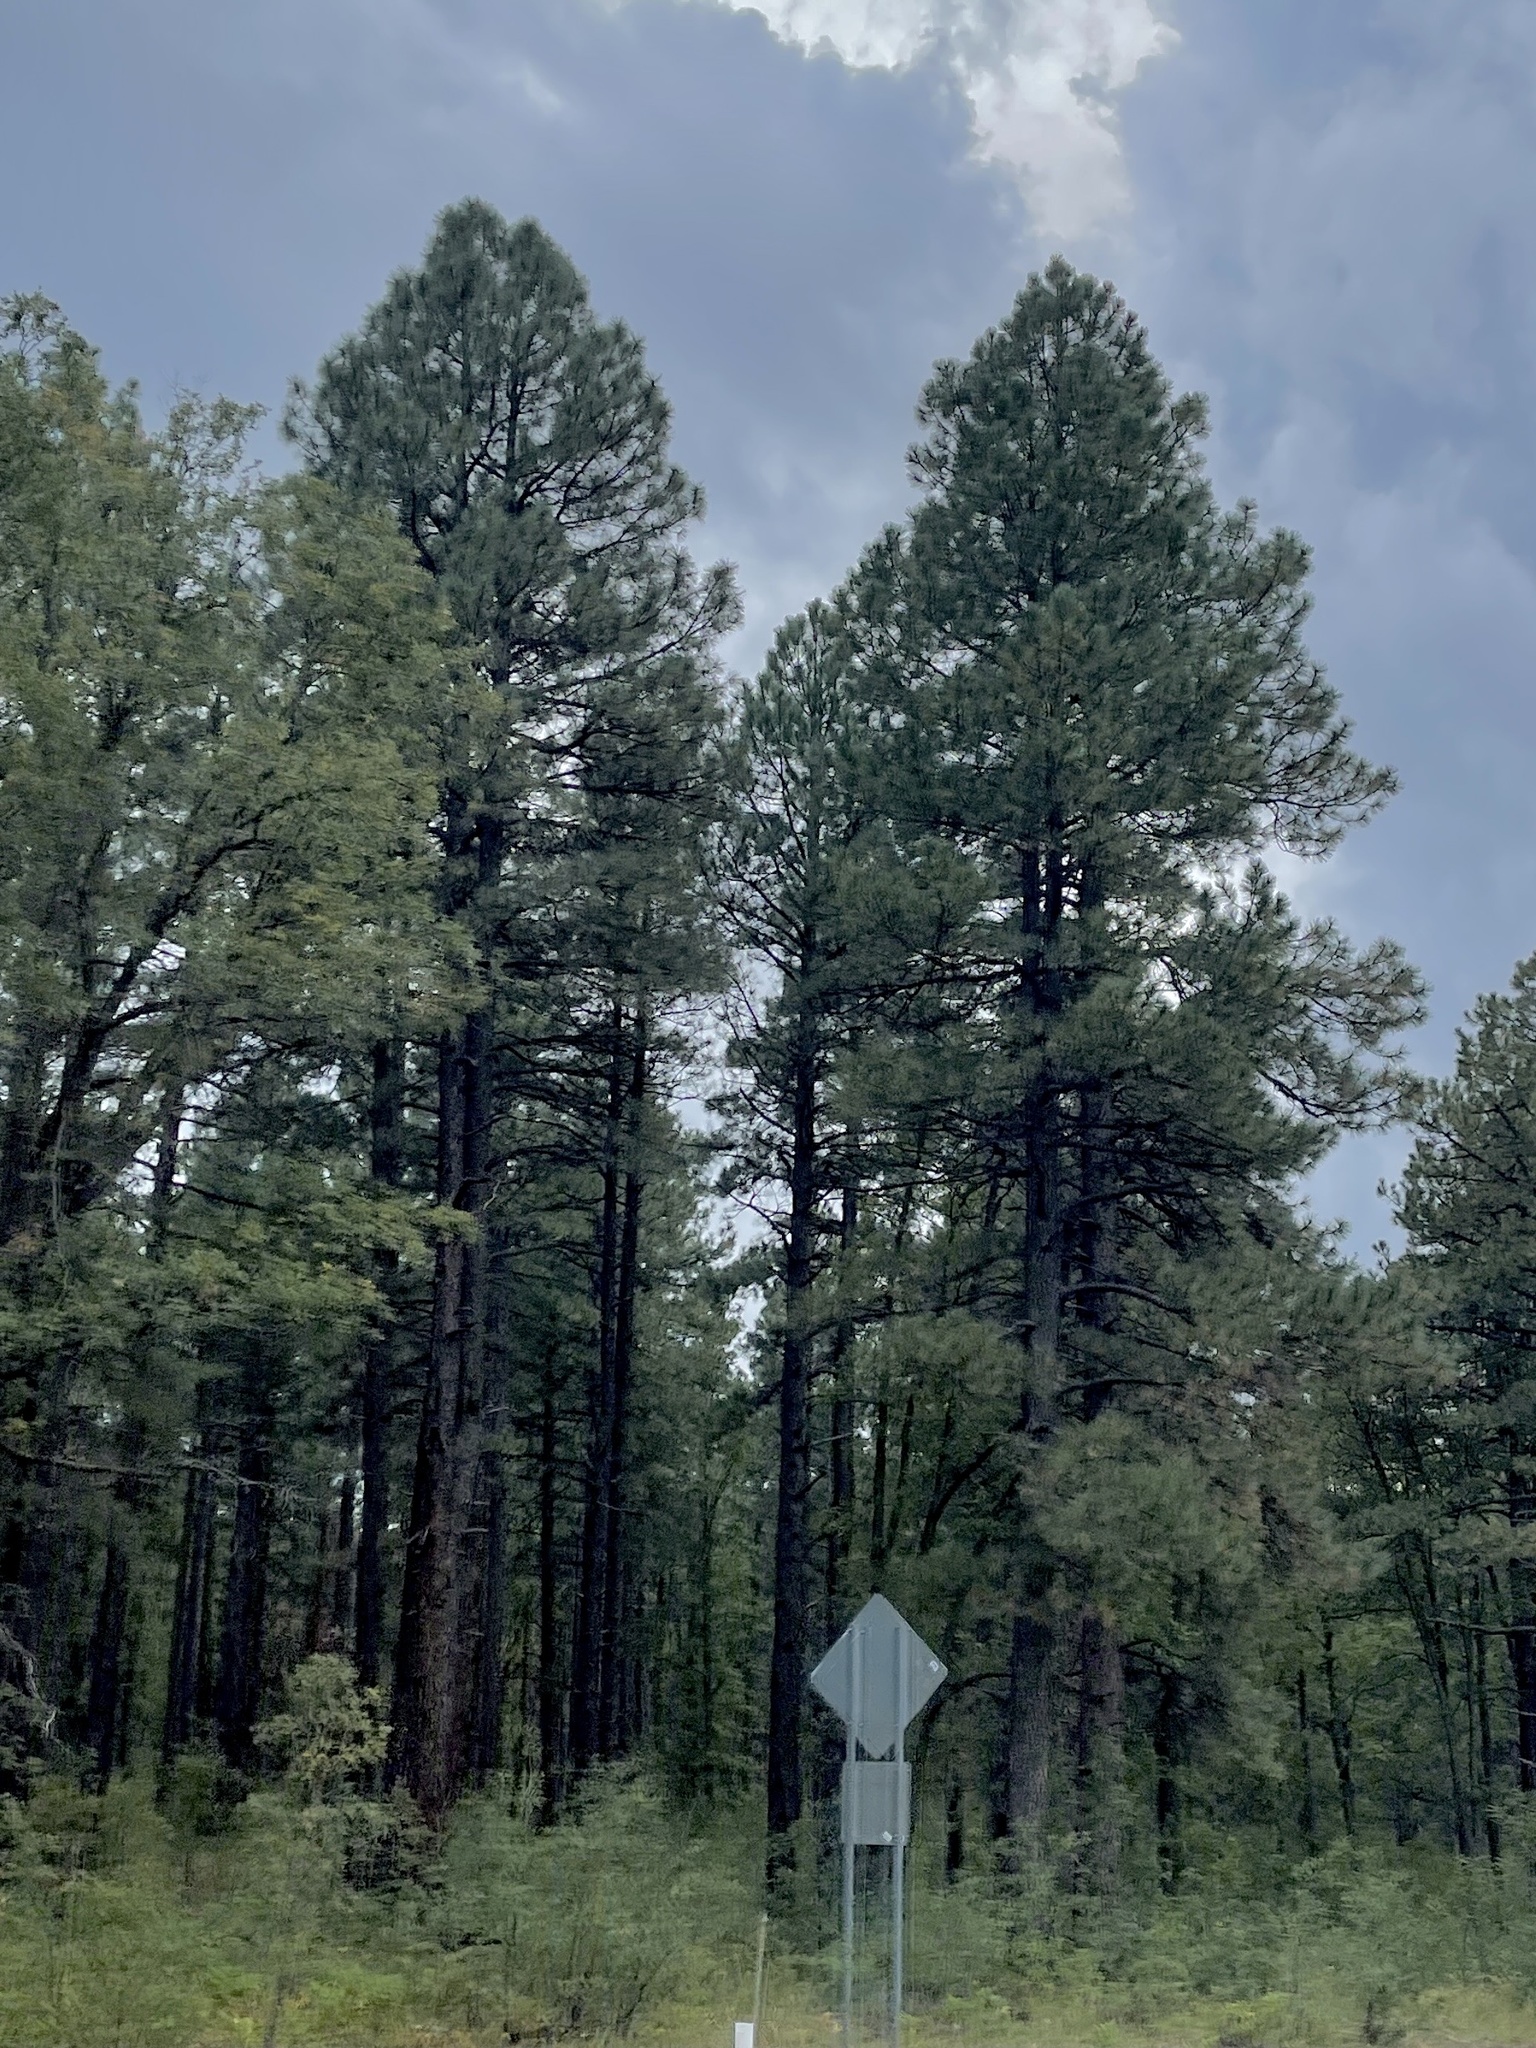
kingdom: Plantae
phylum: Tracheophyta
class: Pinopsida
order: Pinales
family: Pinaceae
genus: Pinus
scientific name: Pinus ponderosa
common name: Western yellow-pine
